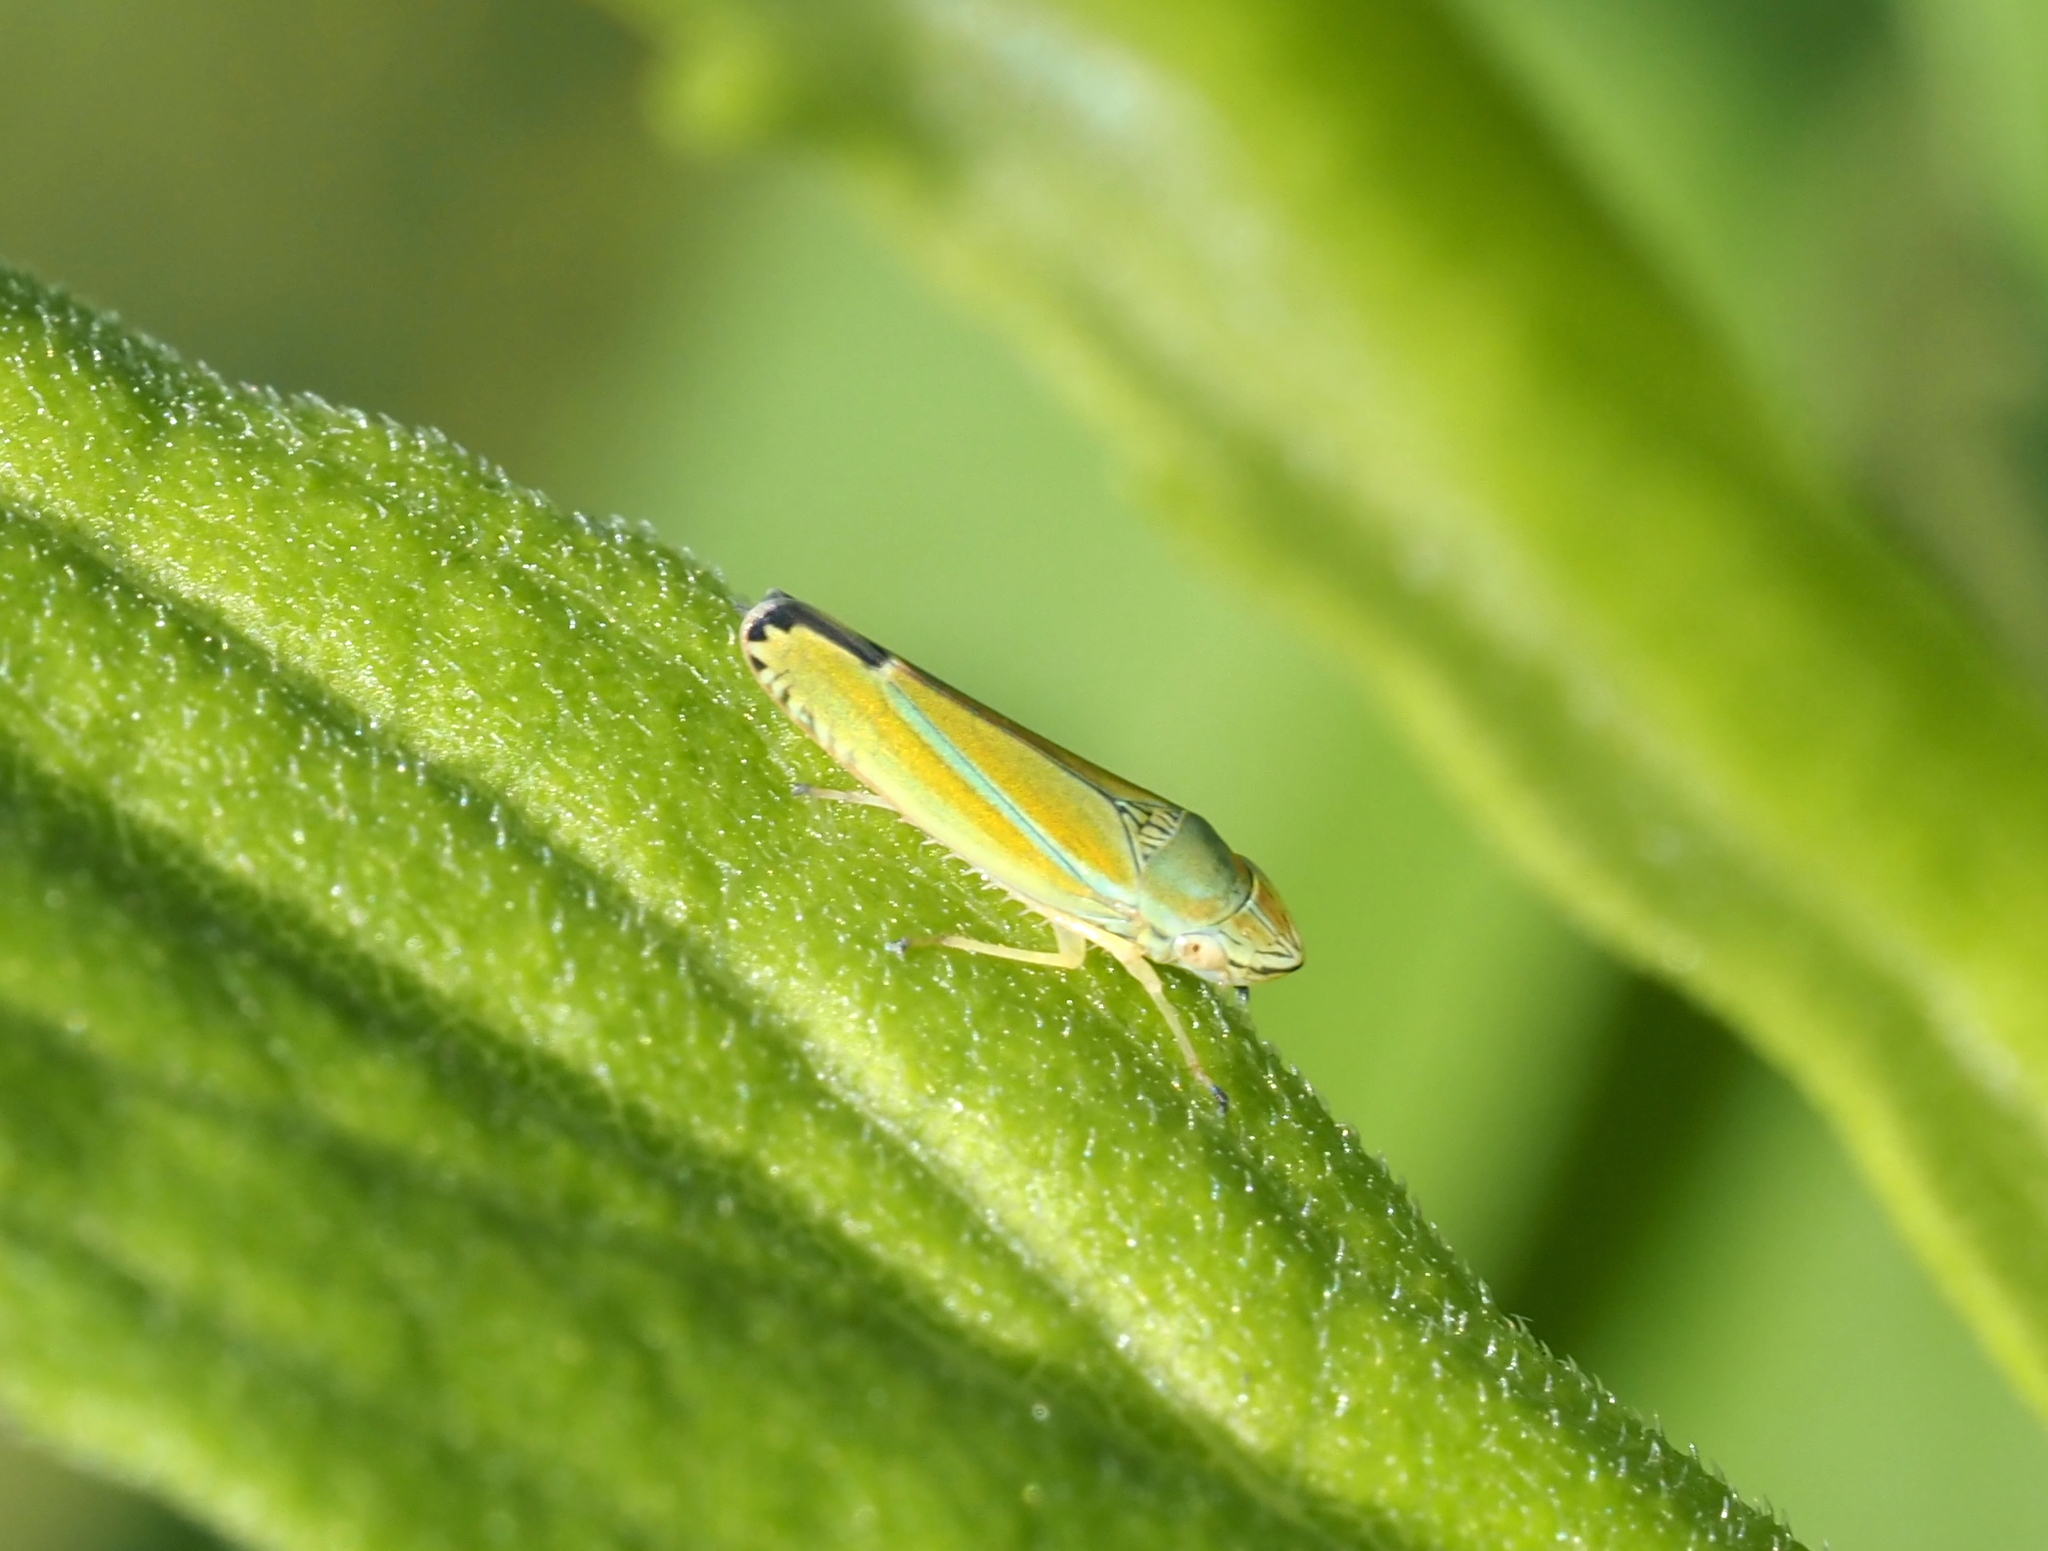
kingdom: Animalia
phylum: Arthropoda
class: Insecta
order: Hemiptera
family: Cicadellidae
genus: Graphocephala
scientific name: Graphocephala versuta
